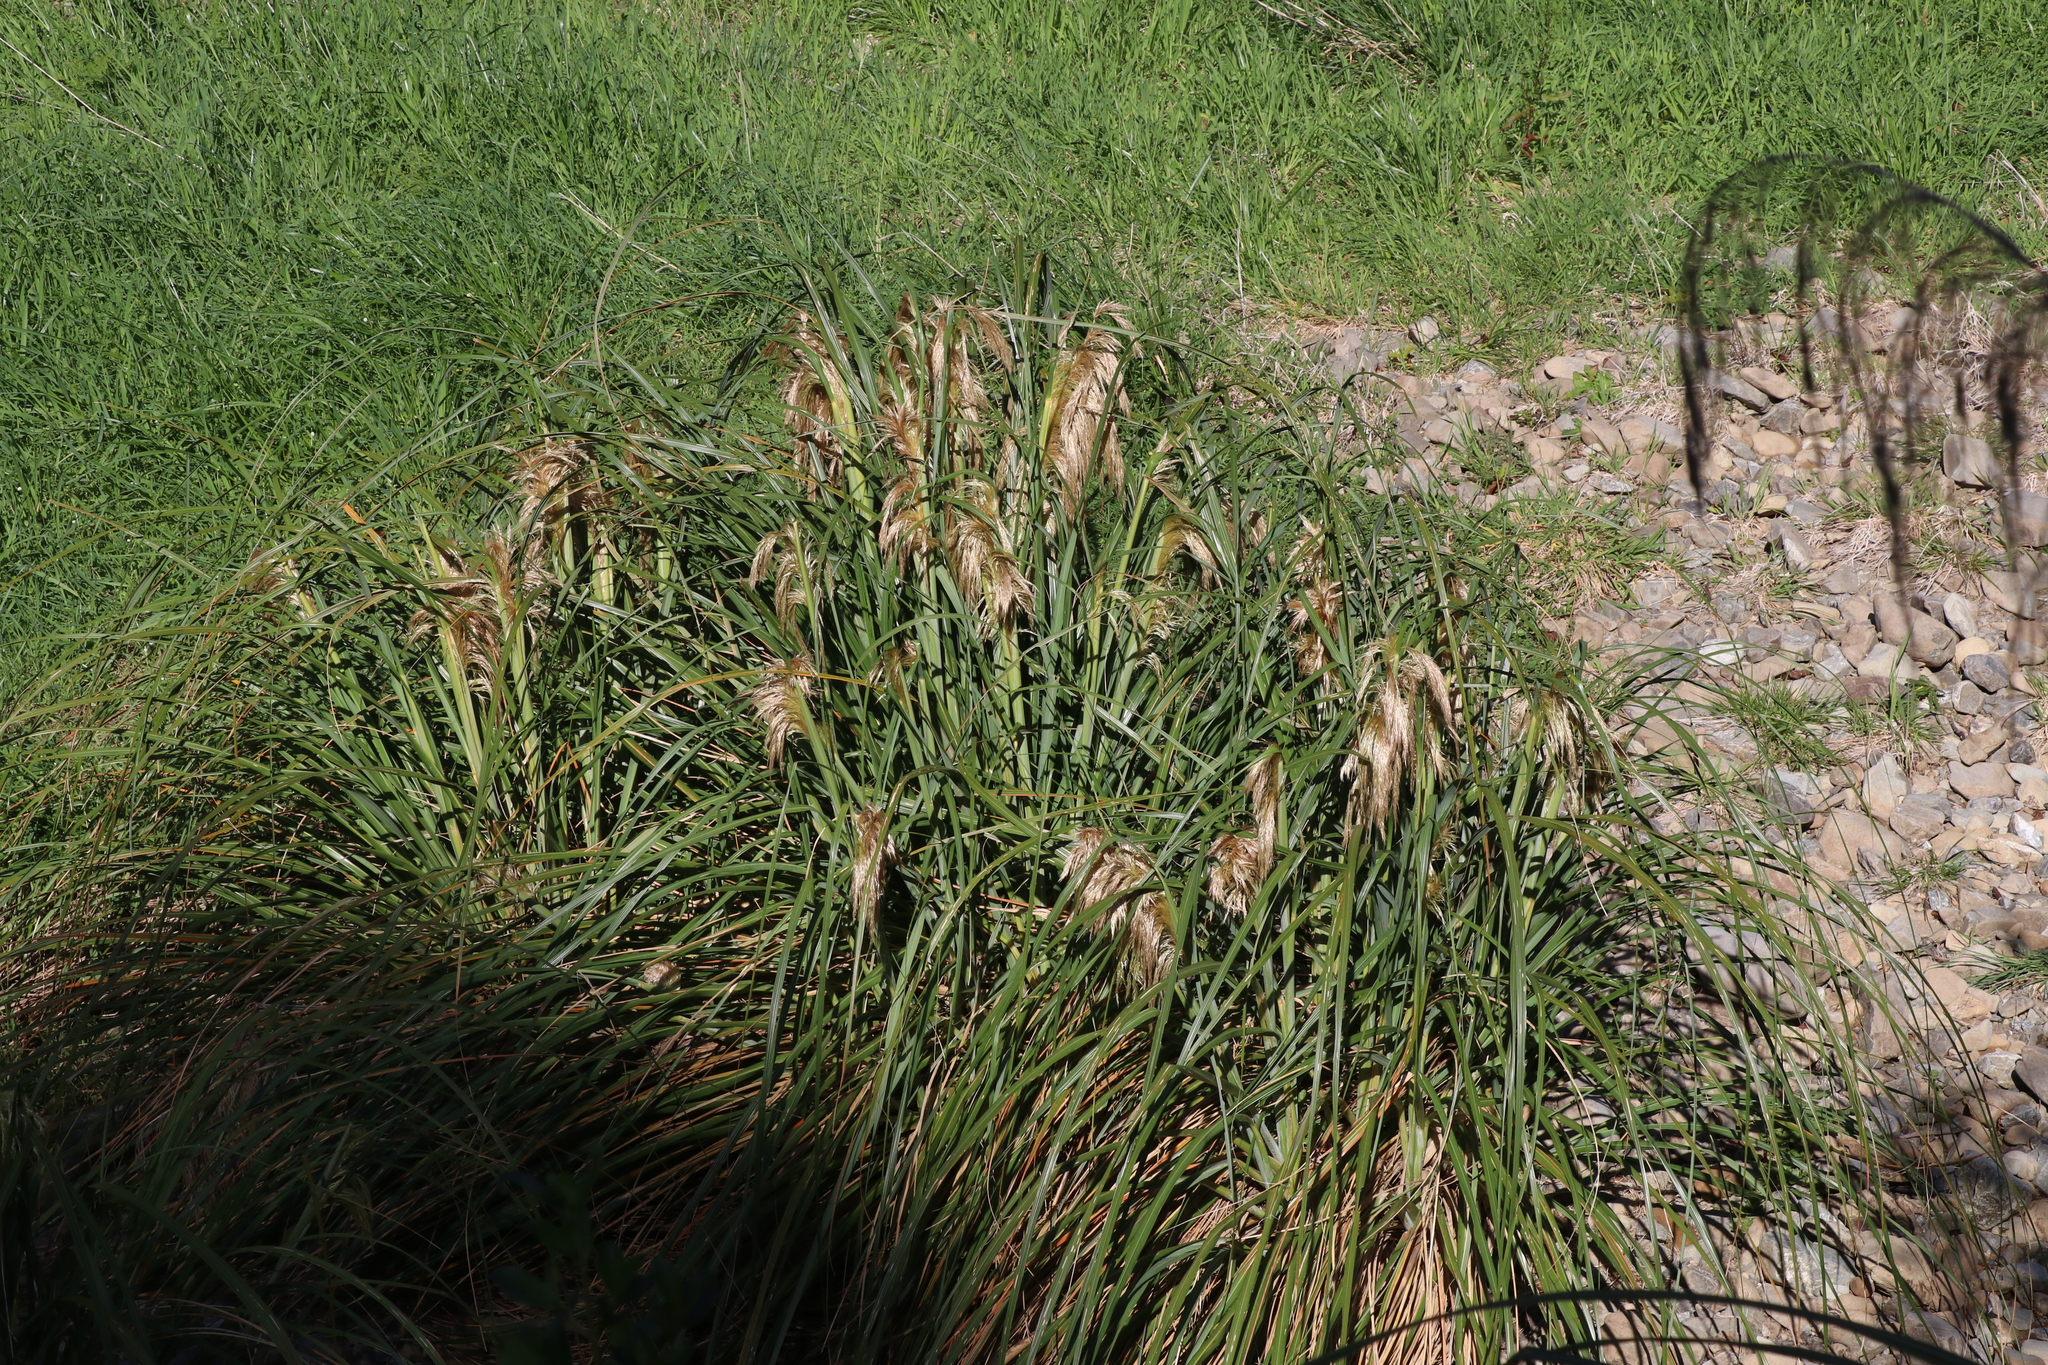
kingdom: Plantae
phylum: Tracheophyta
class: Liliopsida
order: Poales
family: Poaceae
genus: Austroderia
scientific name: Austroderia fulvida
